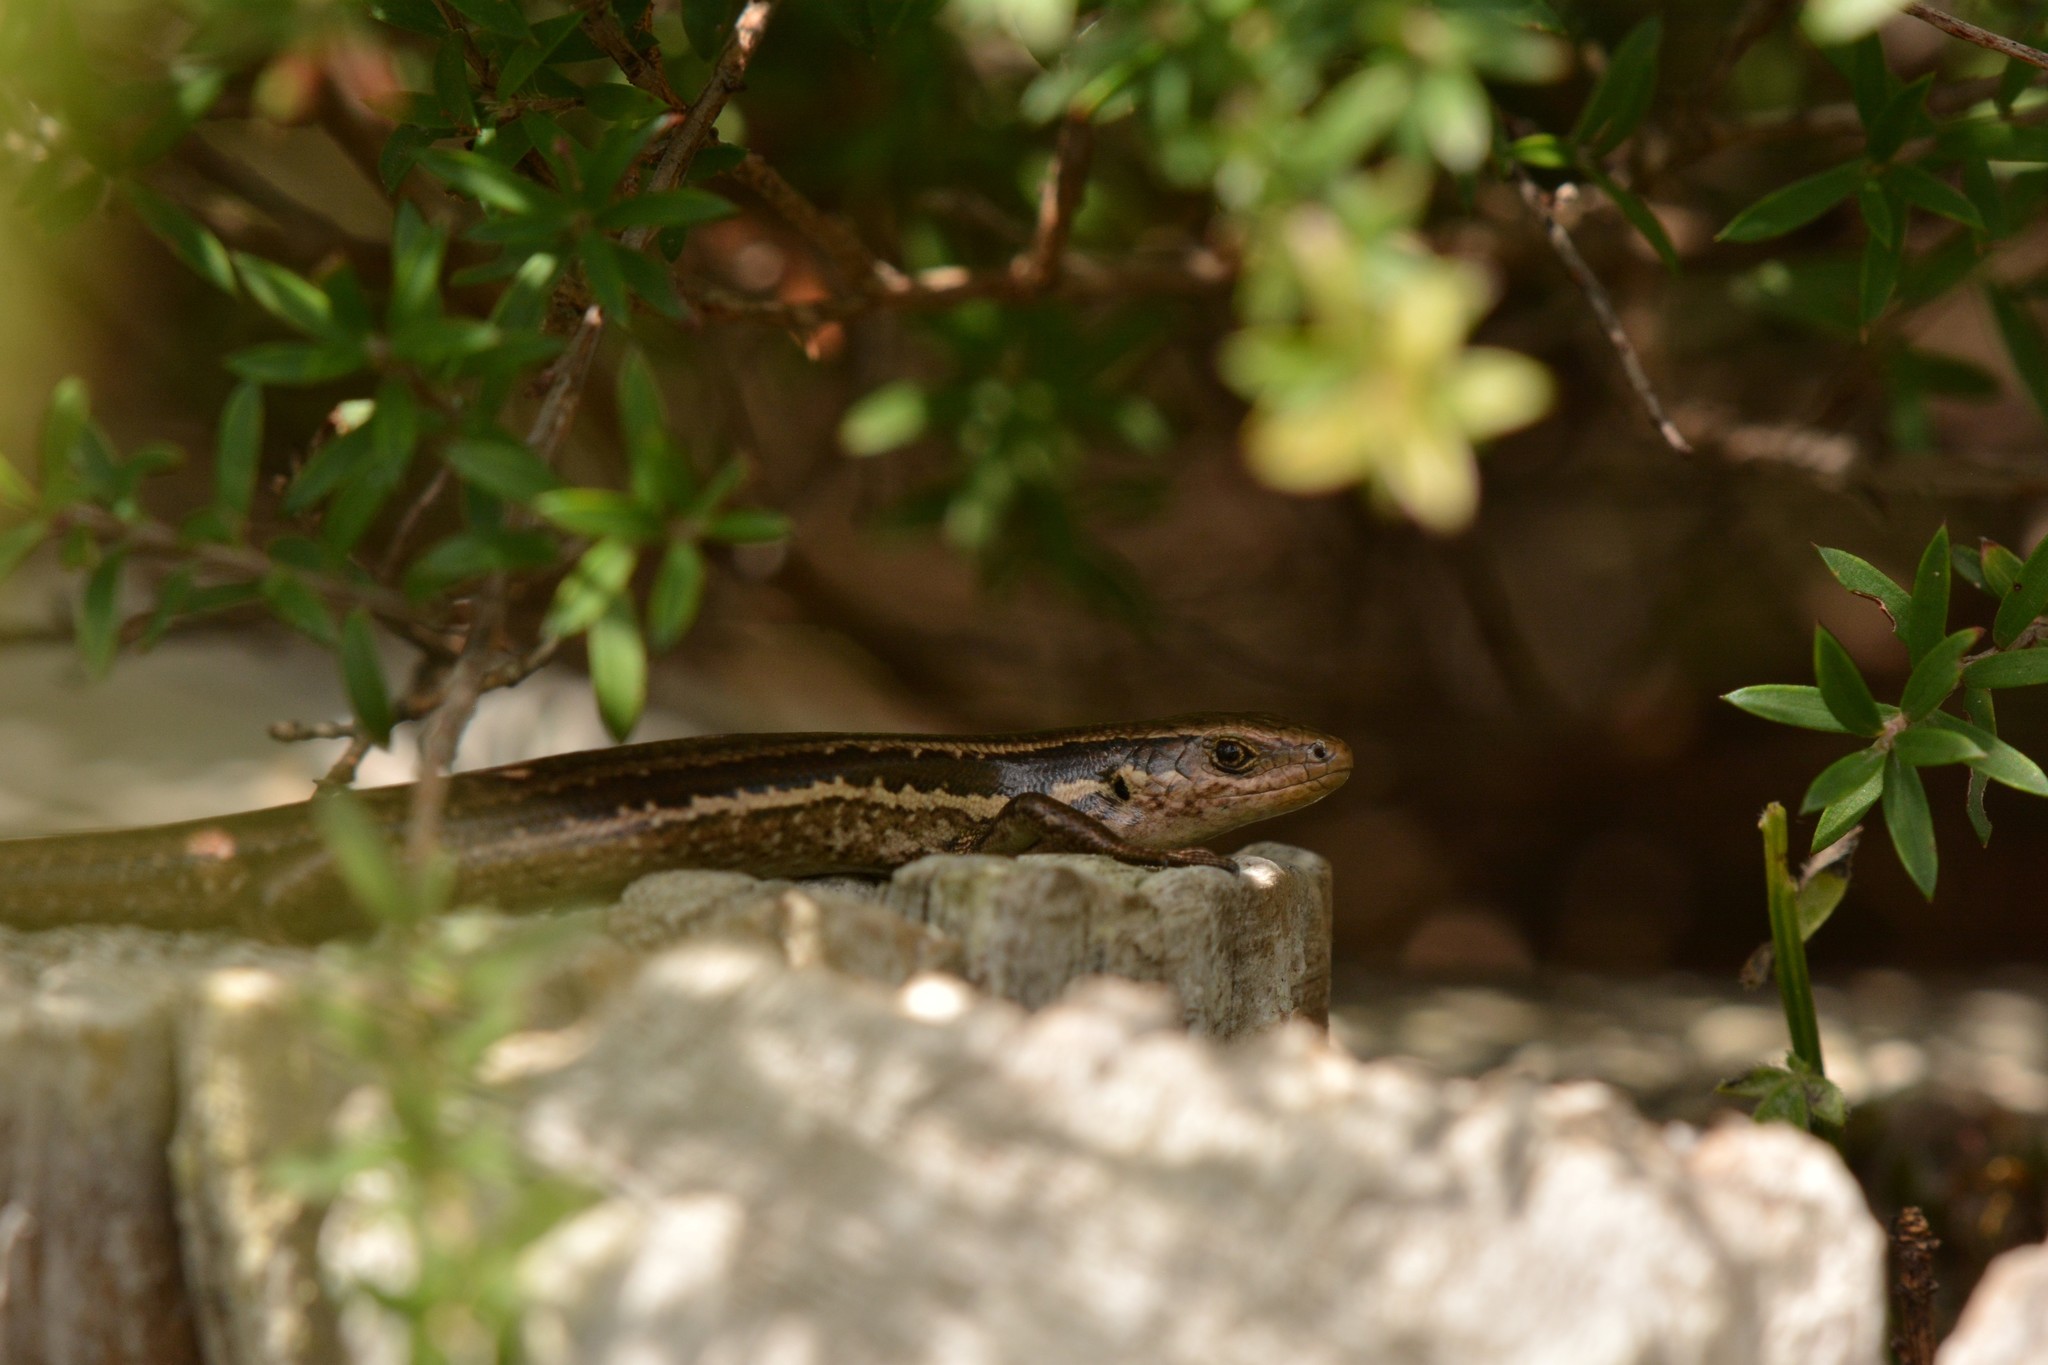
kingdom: Animalia
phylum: Chordata
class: Squamata
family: Scincidae
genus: Oligosoma
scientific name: Oligosoma polychroma
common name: Common new zealand skink
